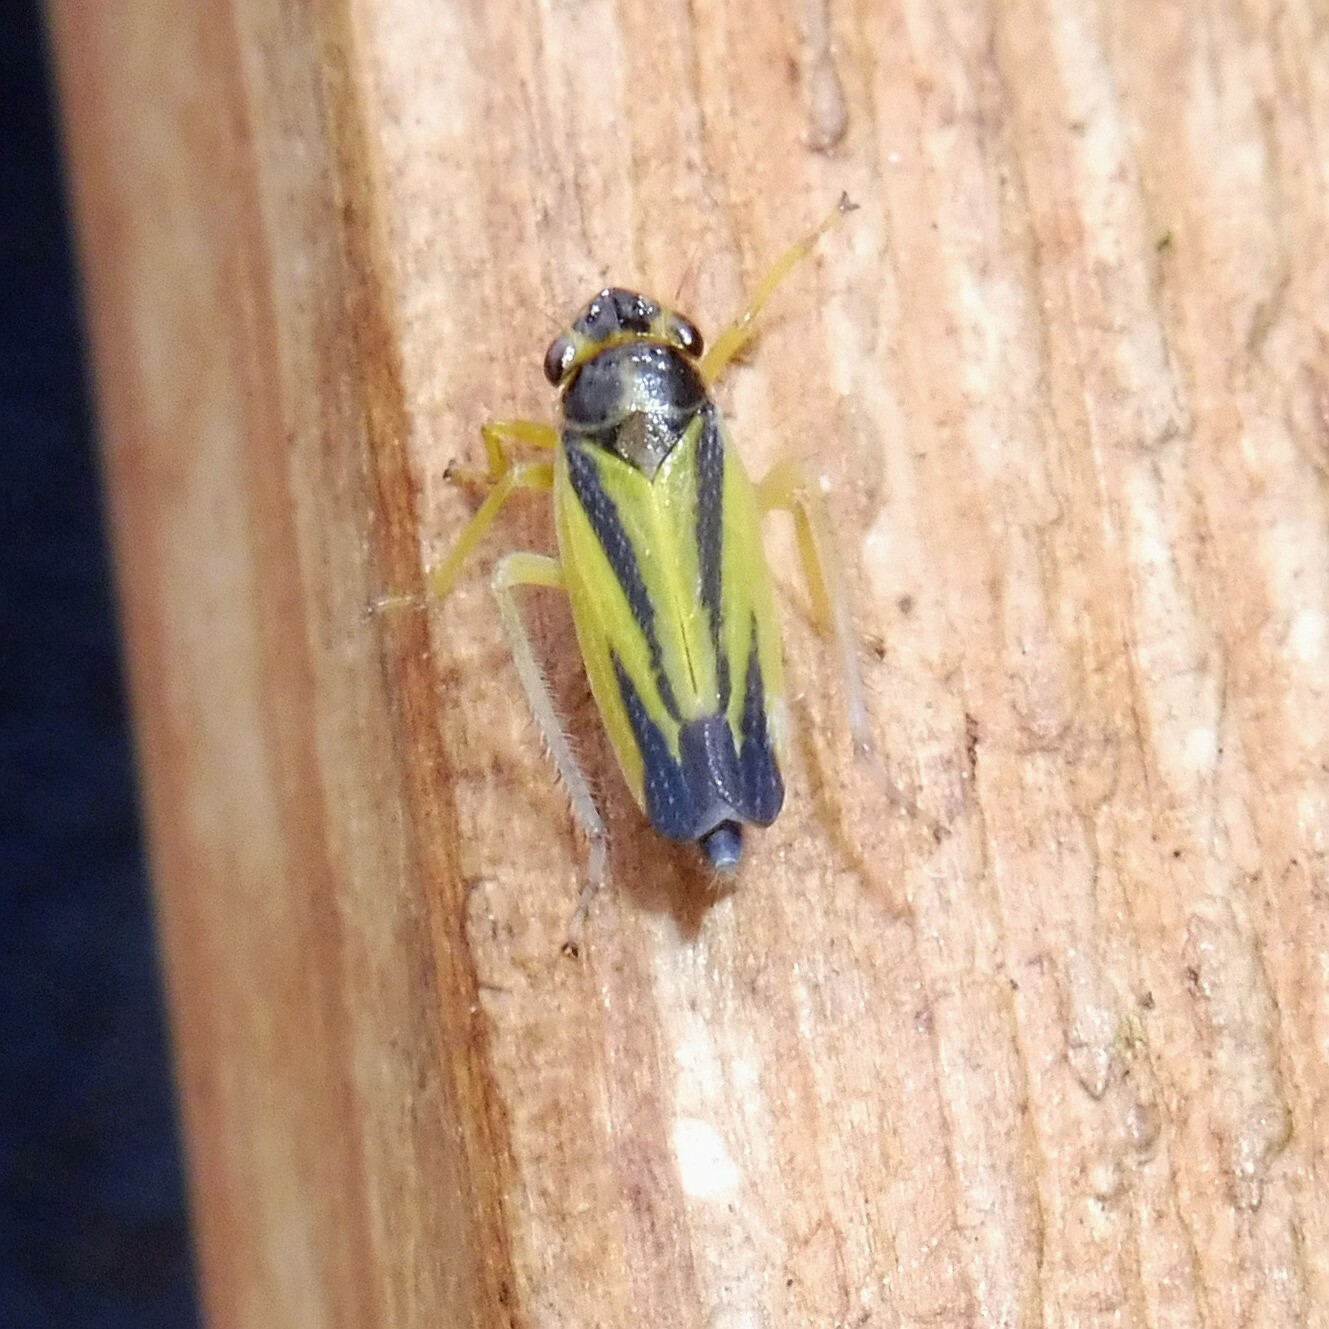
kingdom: Animalia
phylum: Arthropoda
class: Insecta
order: Hemiptera
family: Cicadellidae
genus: Evacanthus
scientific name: Evacanthus interruptus
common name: Leafhopper
